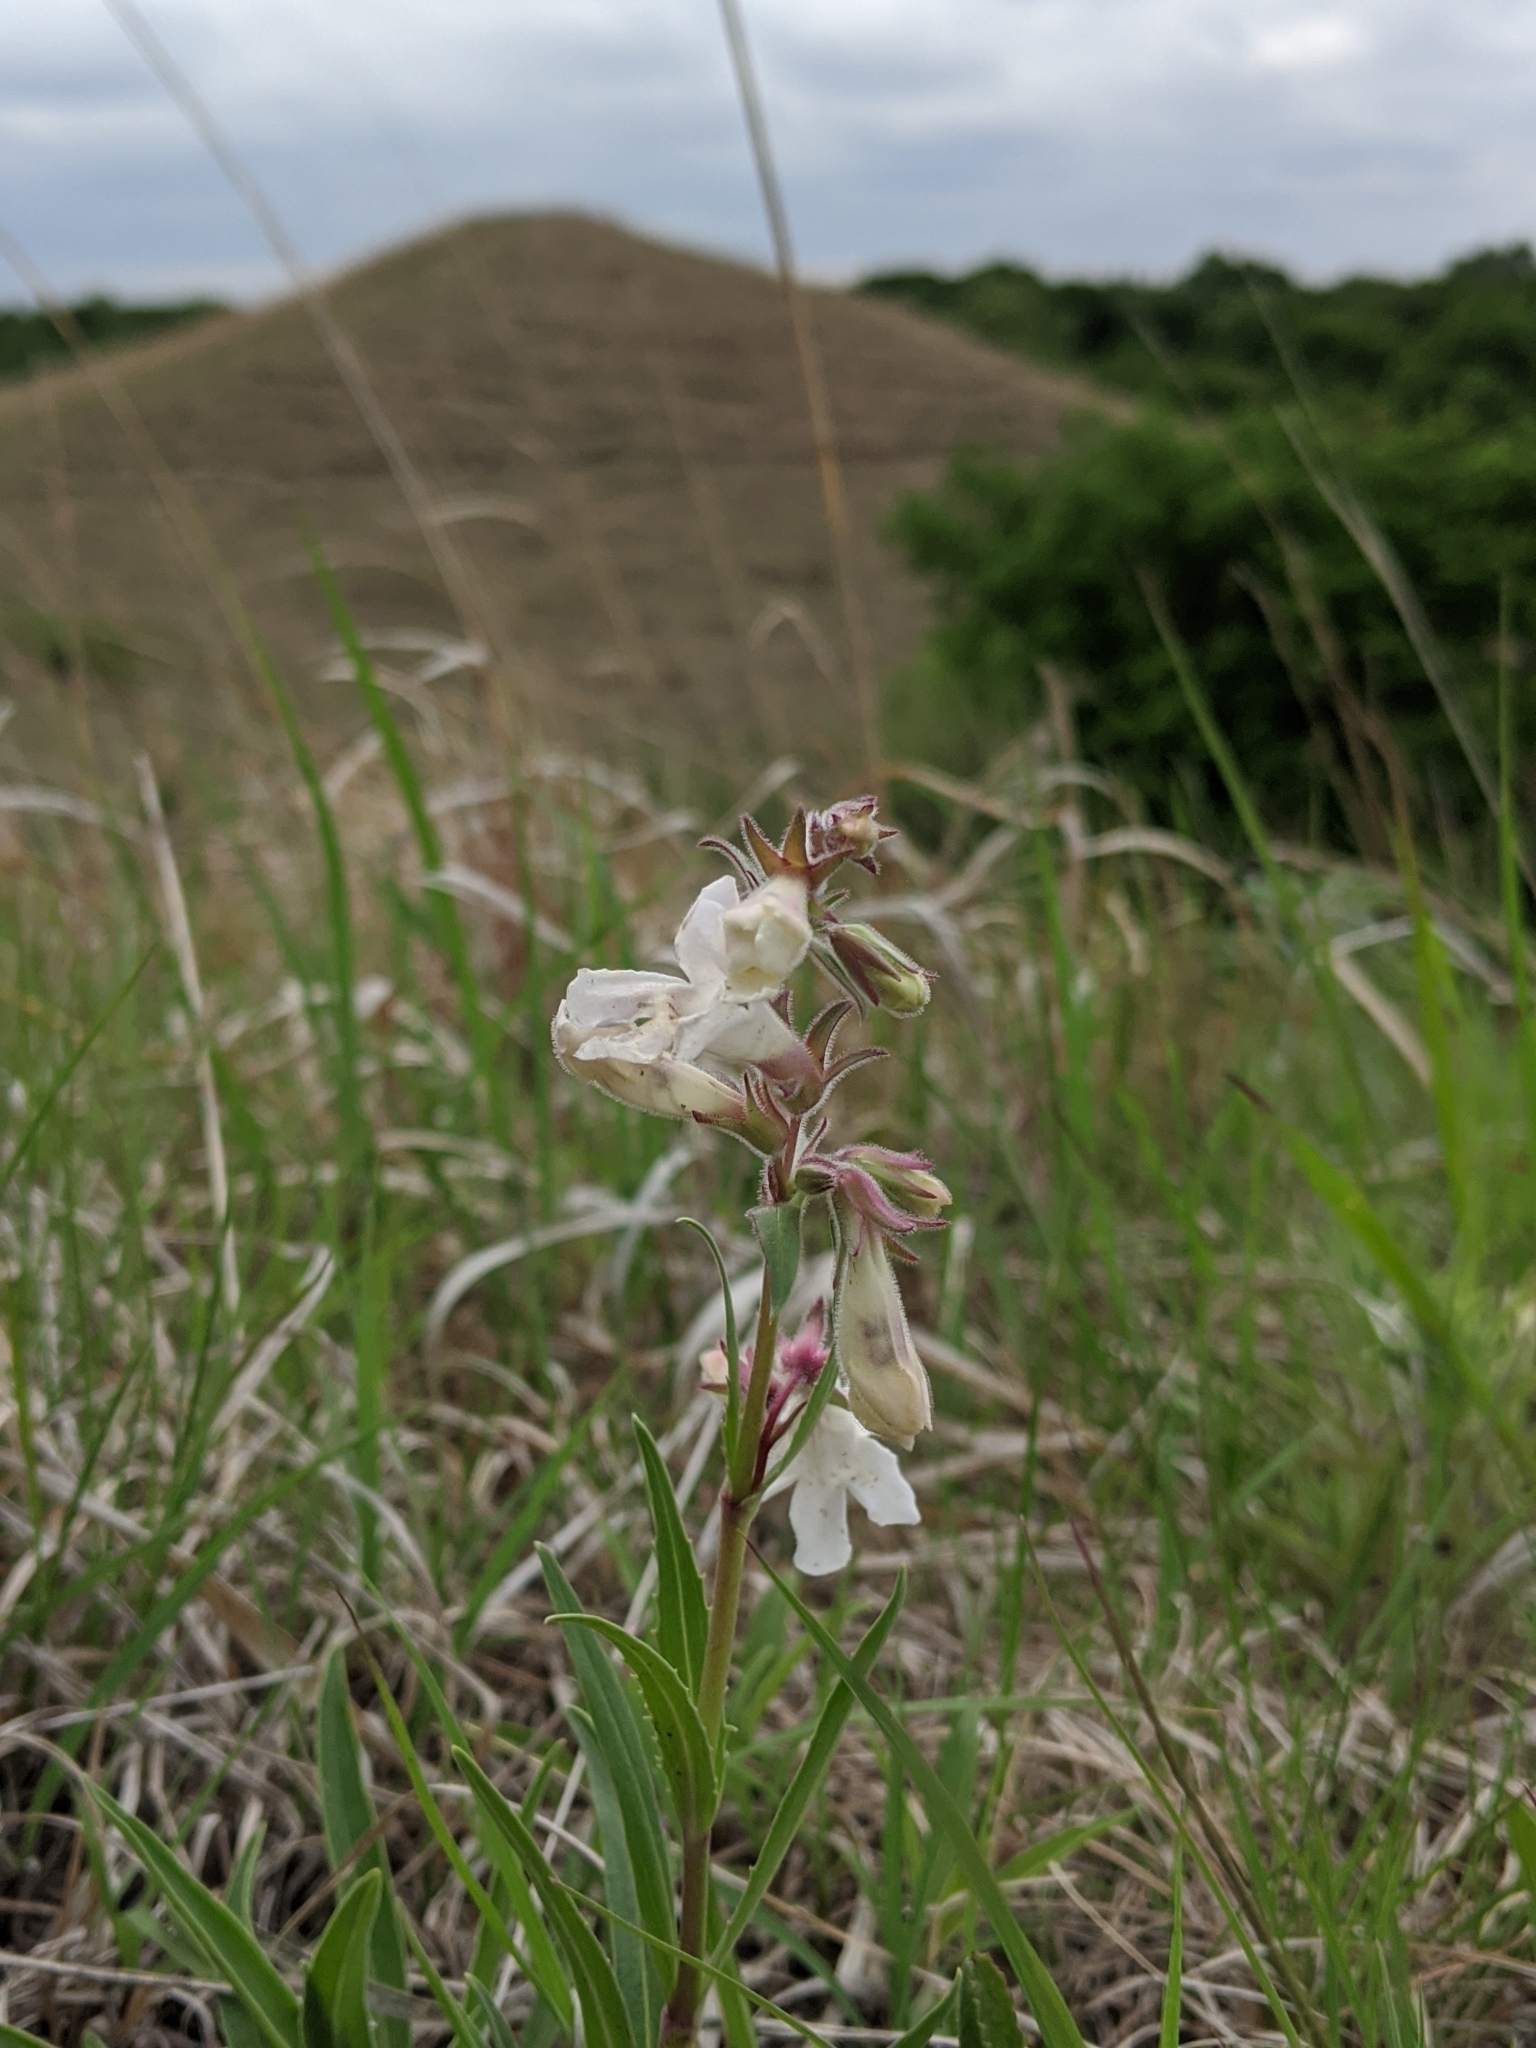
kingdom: Plantae
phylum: Tracheophyta
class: Magnoliopsida
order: Lamiales
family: Plantaginaceae
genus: Penstemon
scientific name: Penstemon albidus
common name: White beardtongue
